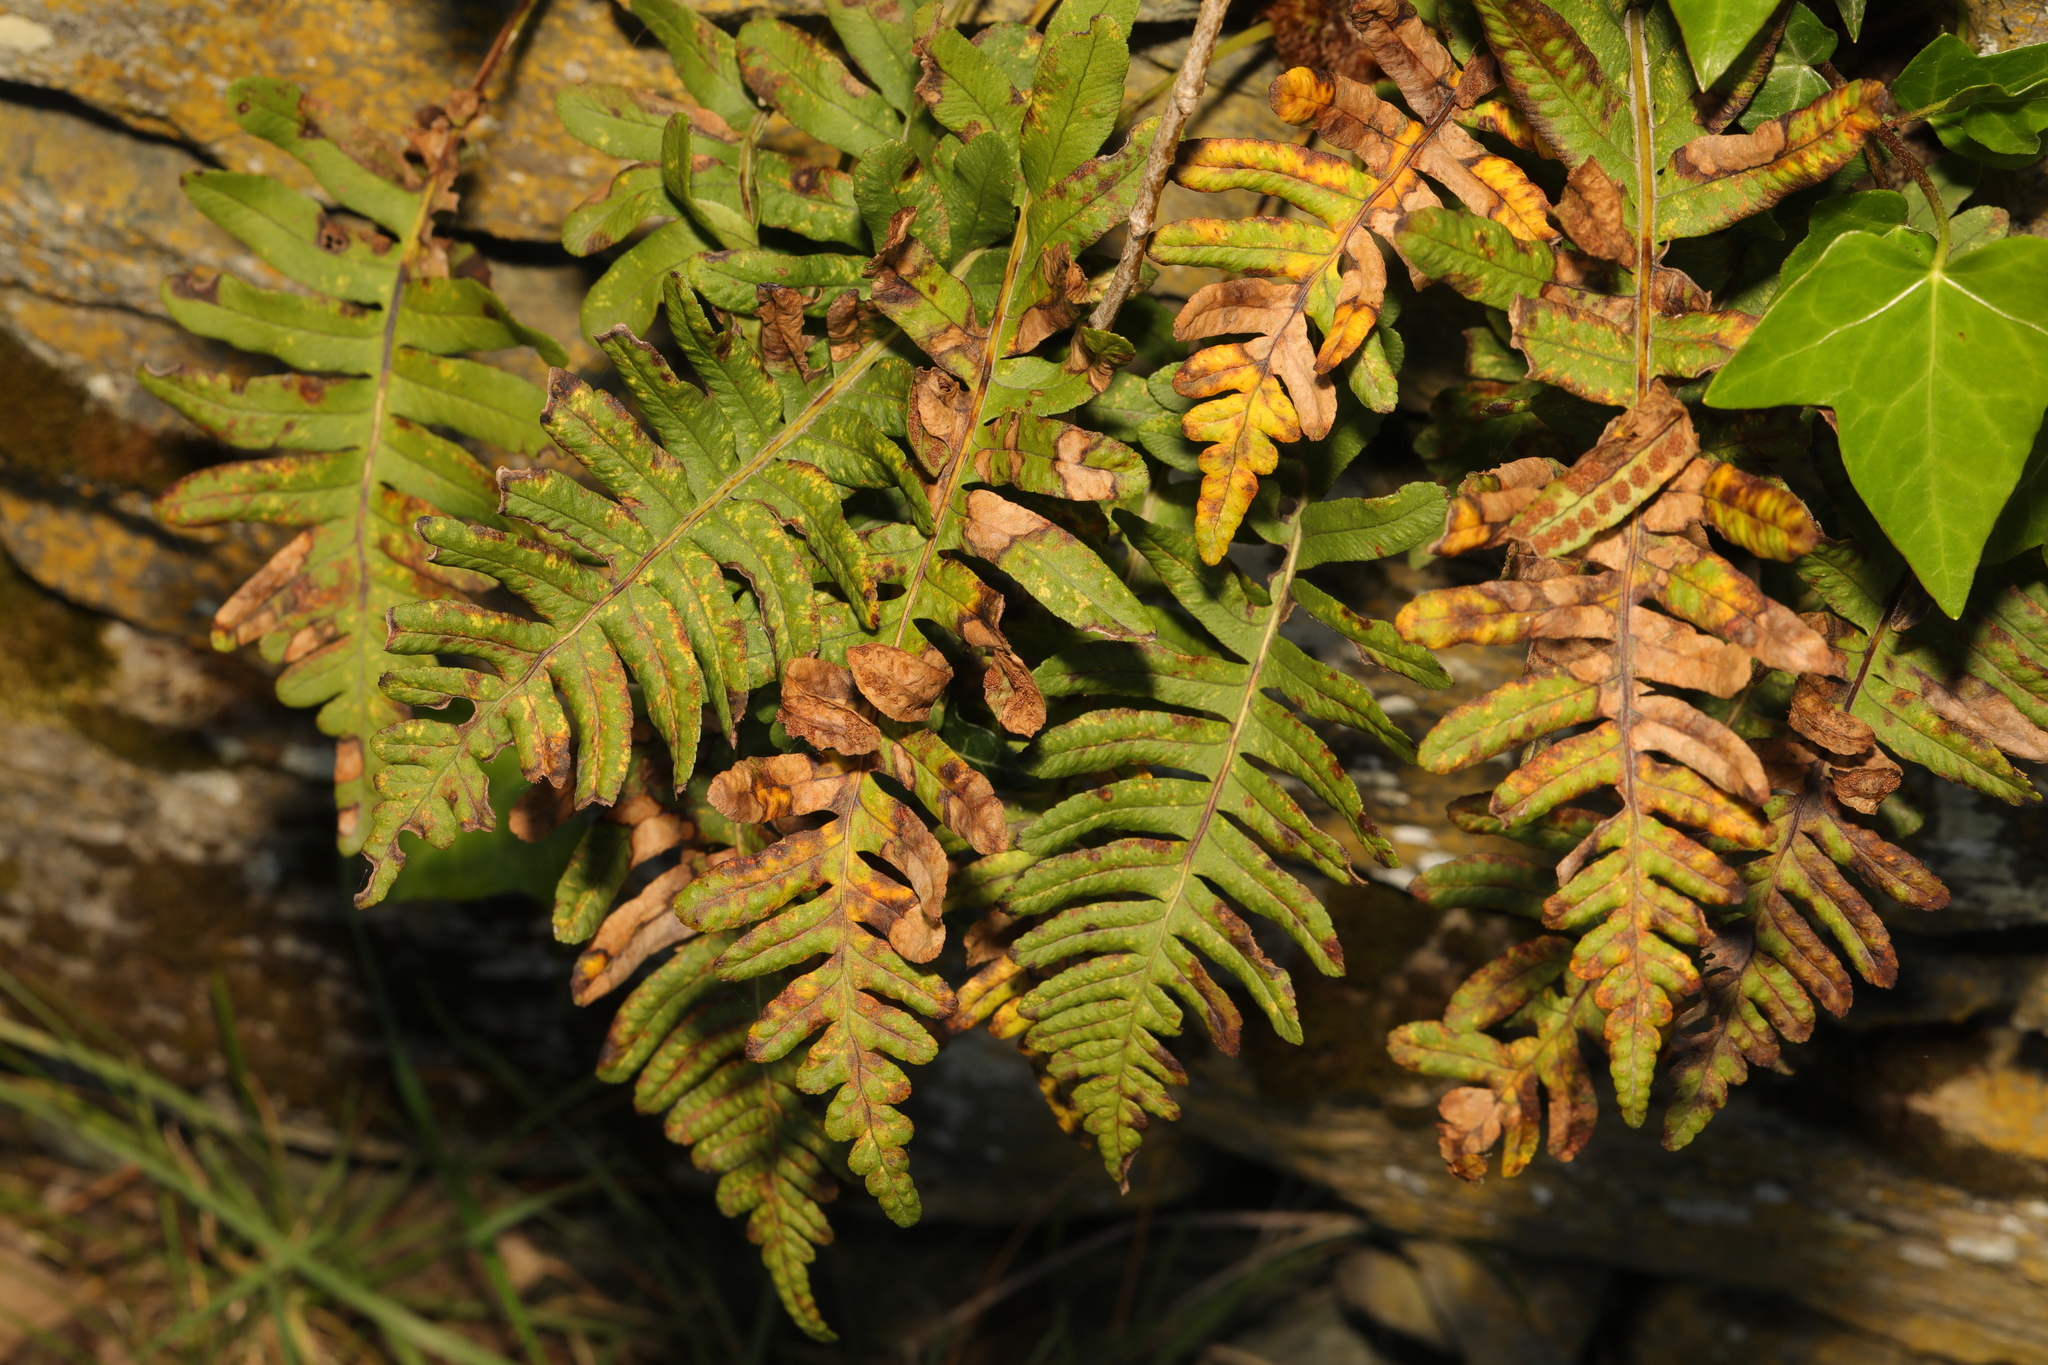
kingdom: Plantae
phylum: Tracheophyta
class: Polypodiopsida
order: Polypodiales
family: Polypodiaceae
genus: Polypodium
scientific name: Polypodium
